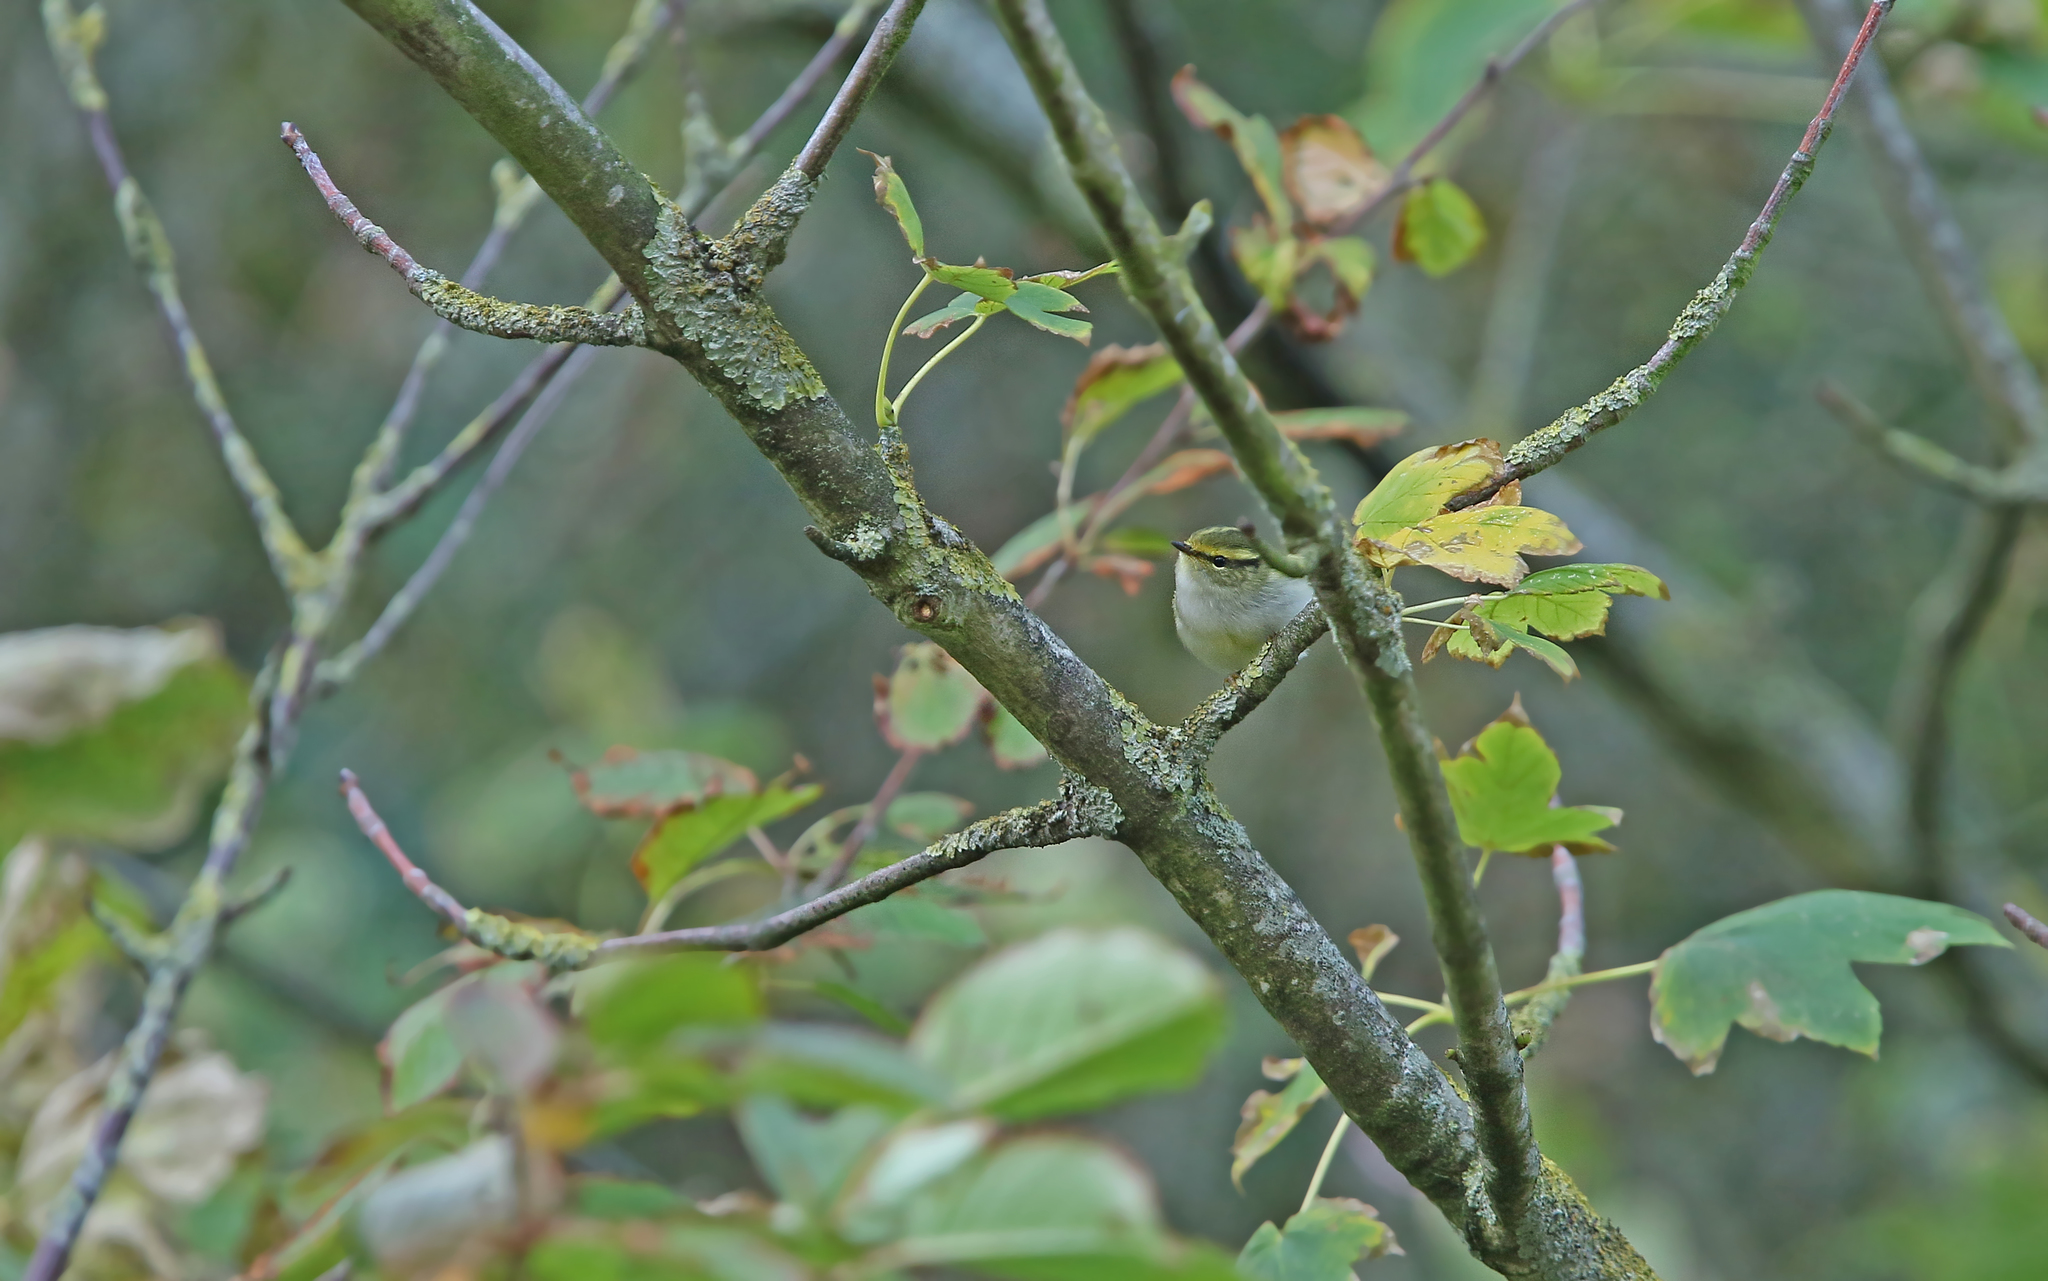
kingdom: Animalia
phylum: Chordata
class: Aves
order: Passeriformes
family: Phylloscopidae
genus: Phylloscopus
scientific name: Phylloscopus proregulus
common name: Pallas's leaf warbler
